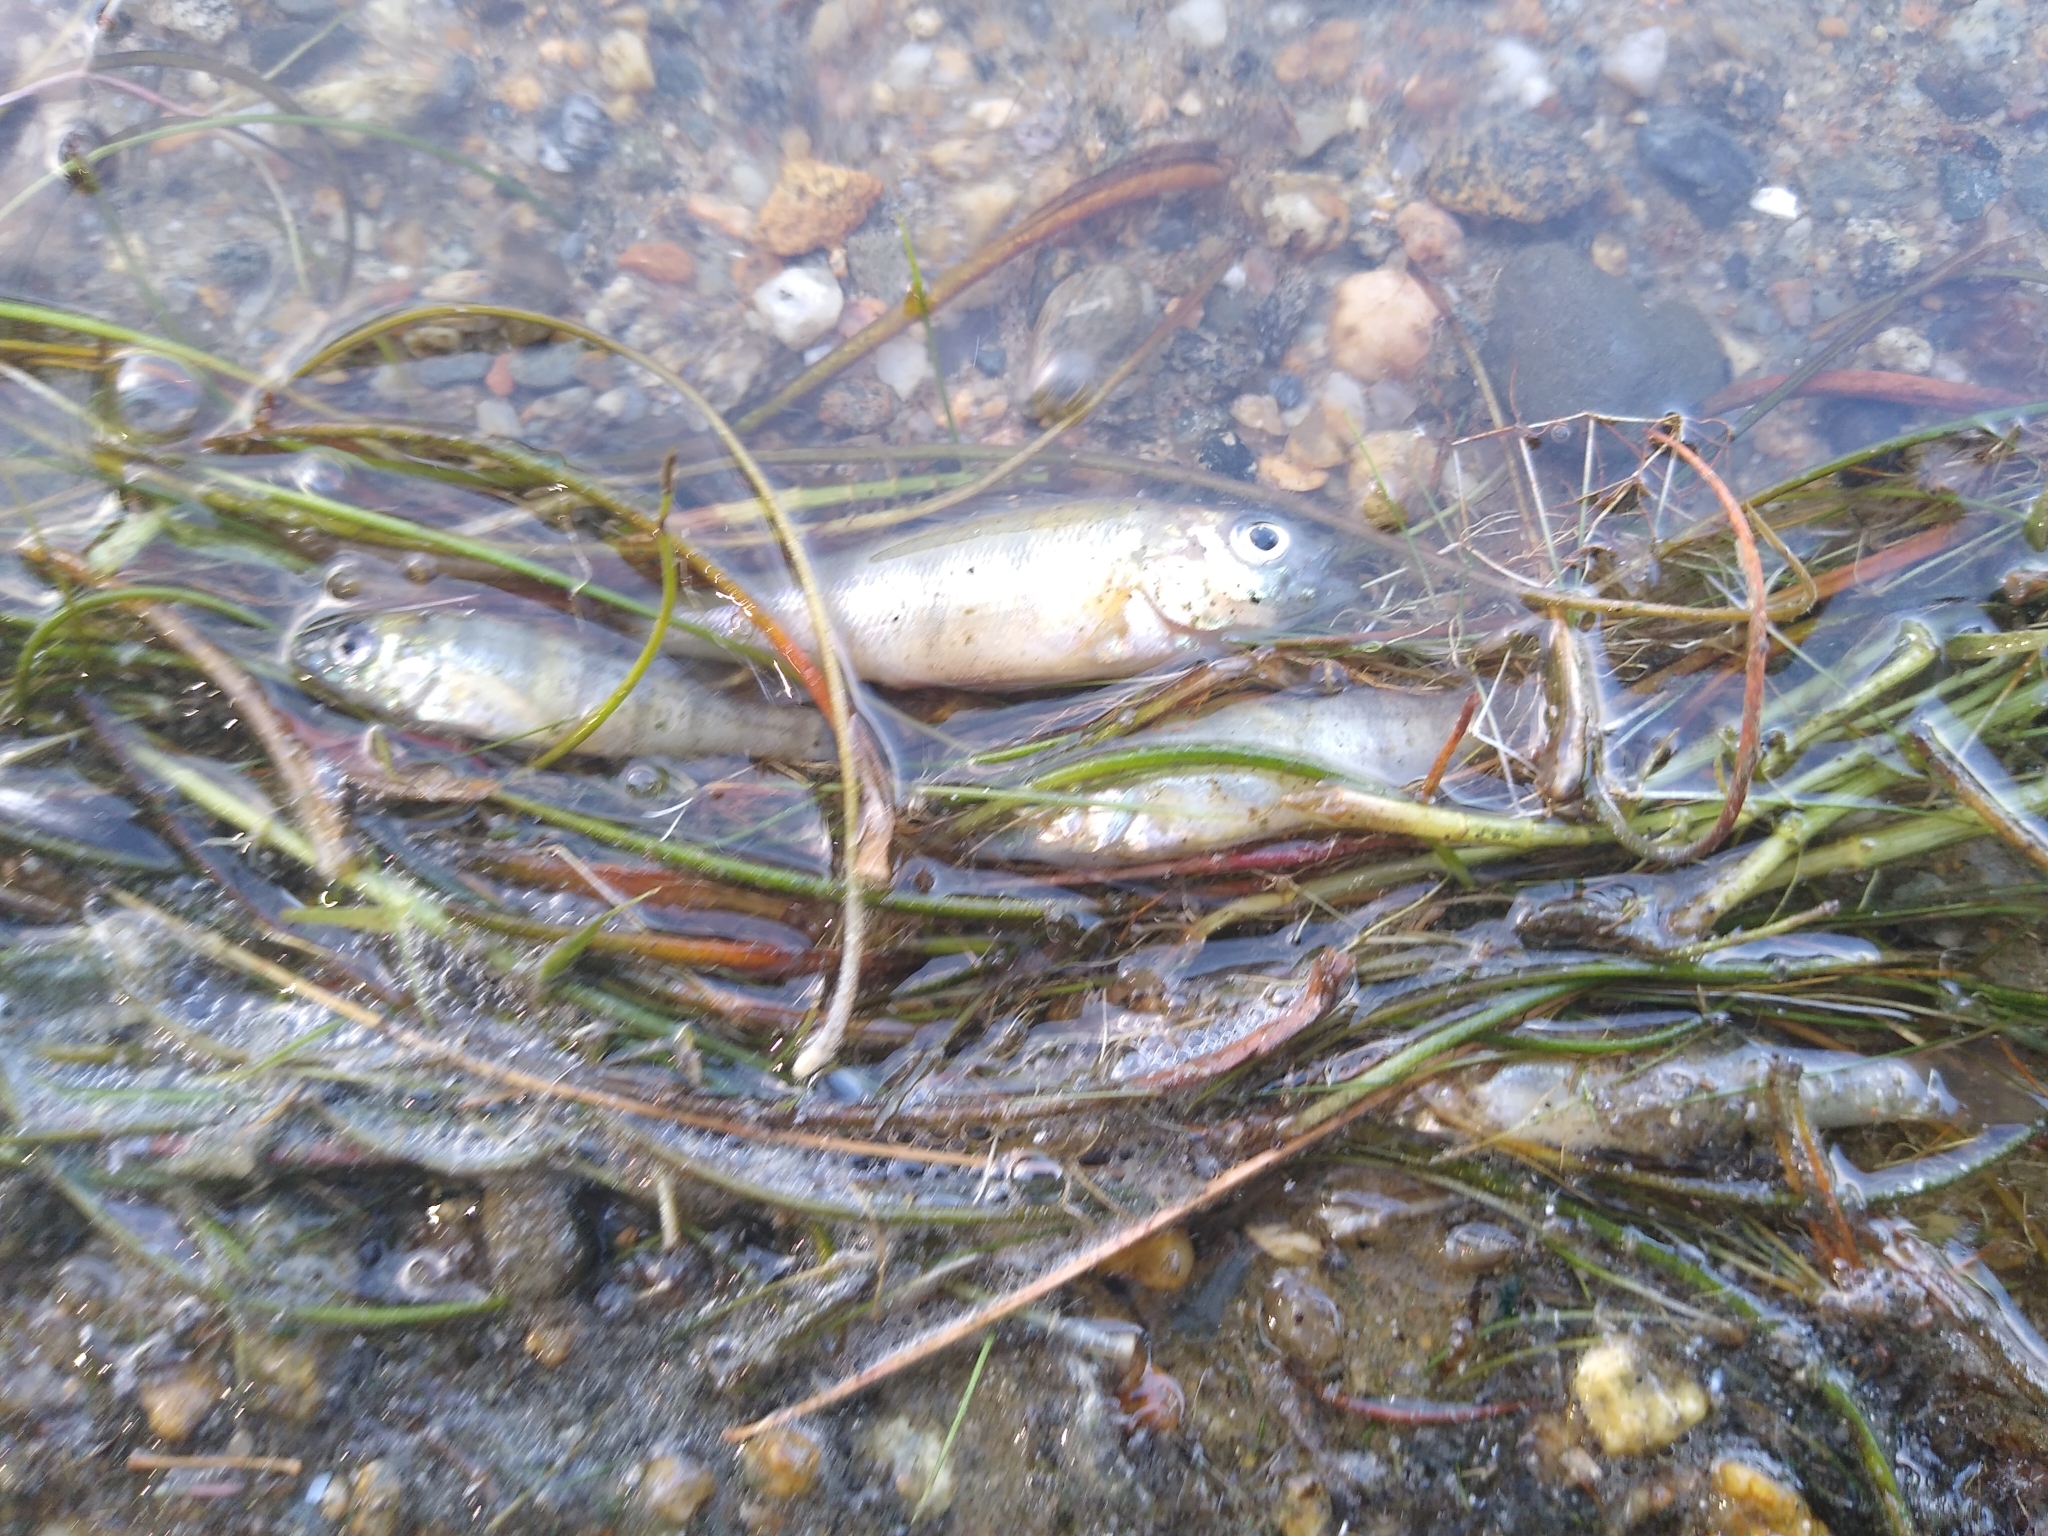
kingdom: Animalia
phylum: Chordata
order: Perciformes
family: Percidae
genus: Perca
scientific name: Perca flavescens
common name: Yellow perch
